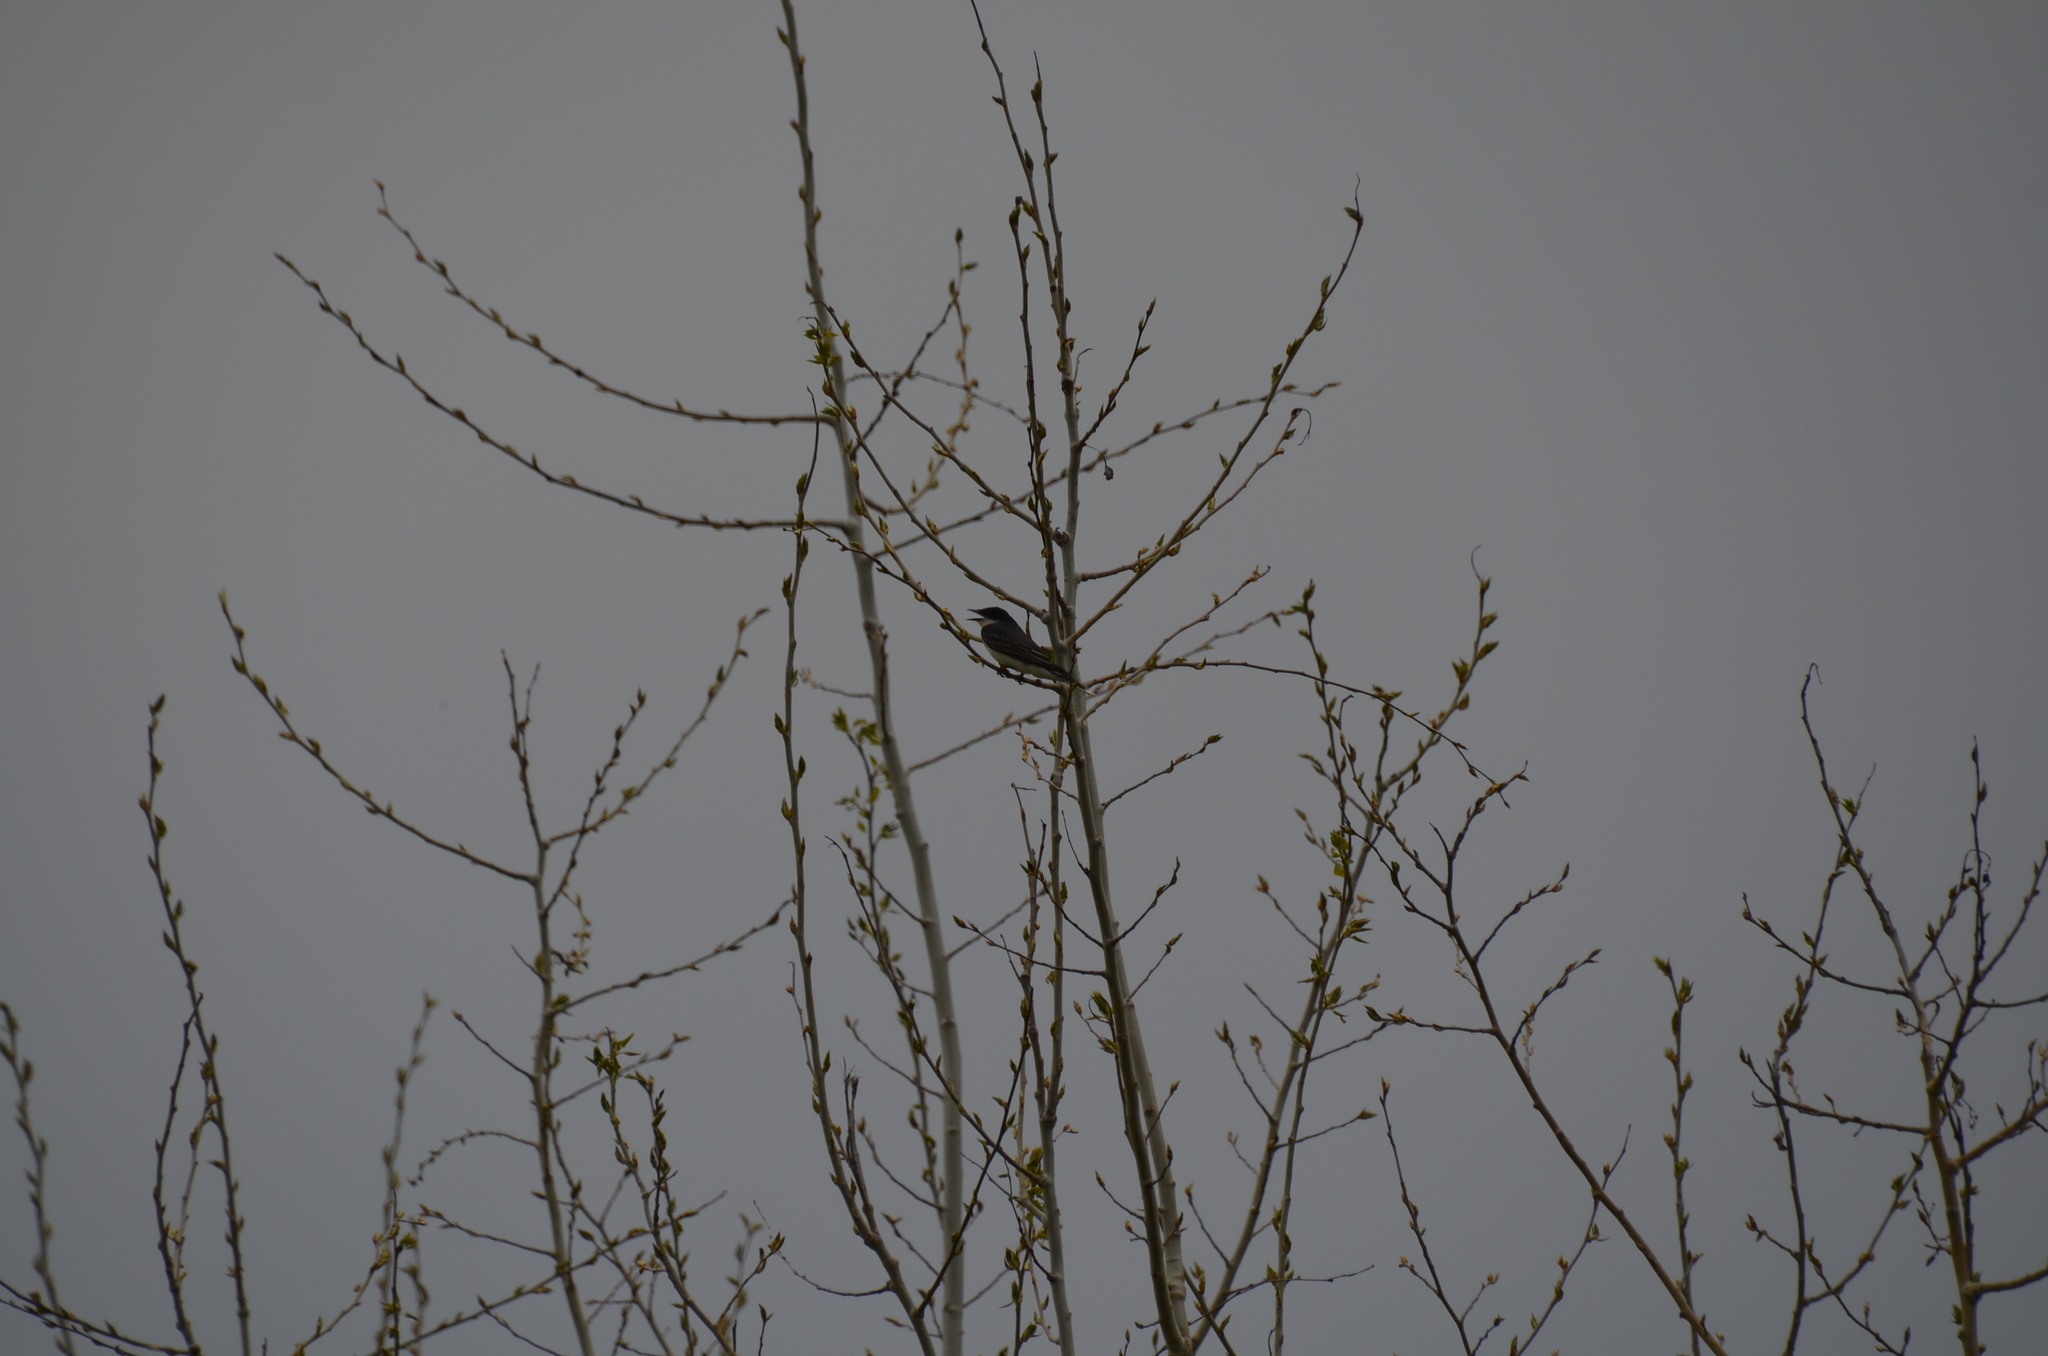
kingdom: Animalia
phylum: Chordata
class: Aves
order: Passeriformes
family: Tyrannidae
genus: Tyrannus
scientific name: Tyrannus tyrannus
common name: Eastern kingbird
